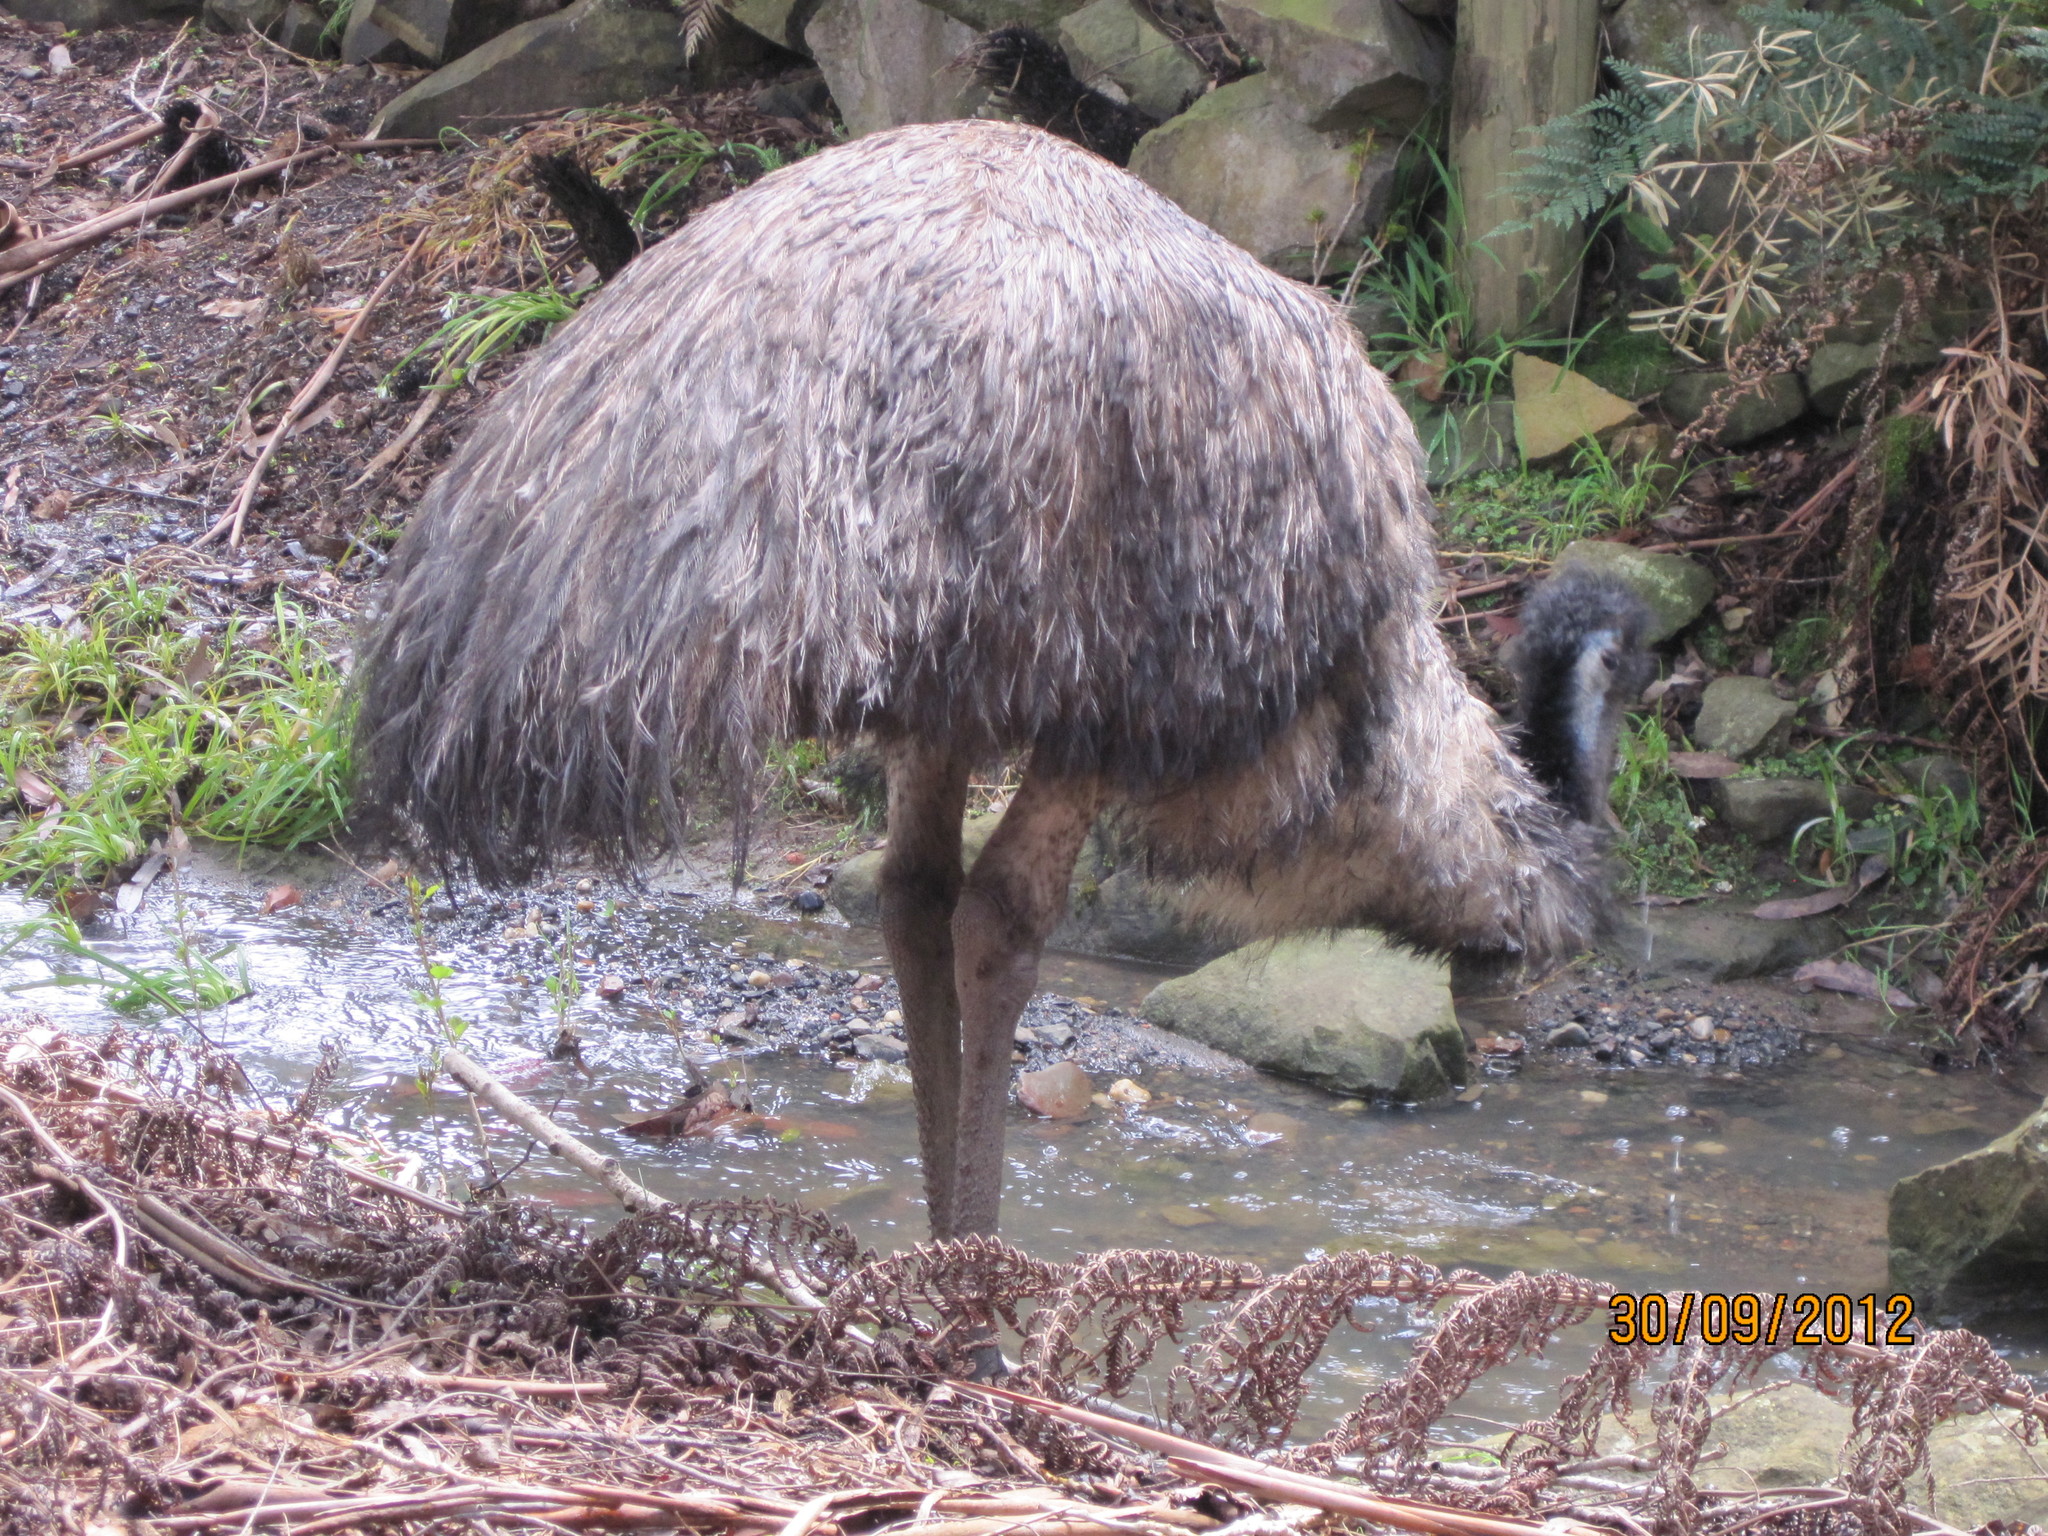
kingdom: Animalia
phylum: Chordata
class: Aves
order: Casuariiformes
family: Dromaiidae
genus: Dromaius
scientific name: Dromaius novaehollandiae
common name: Emu
